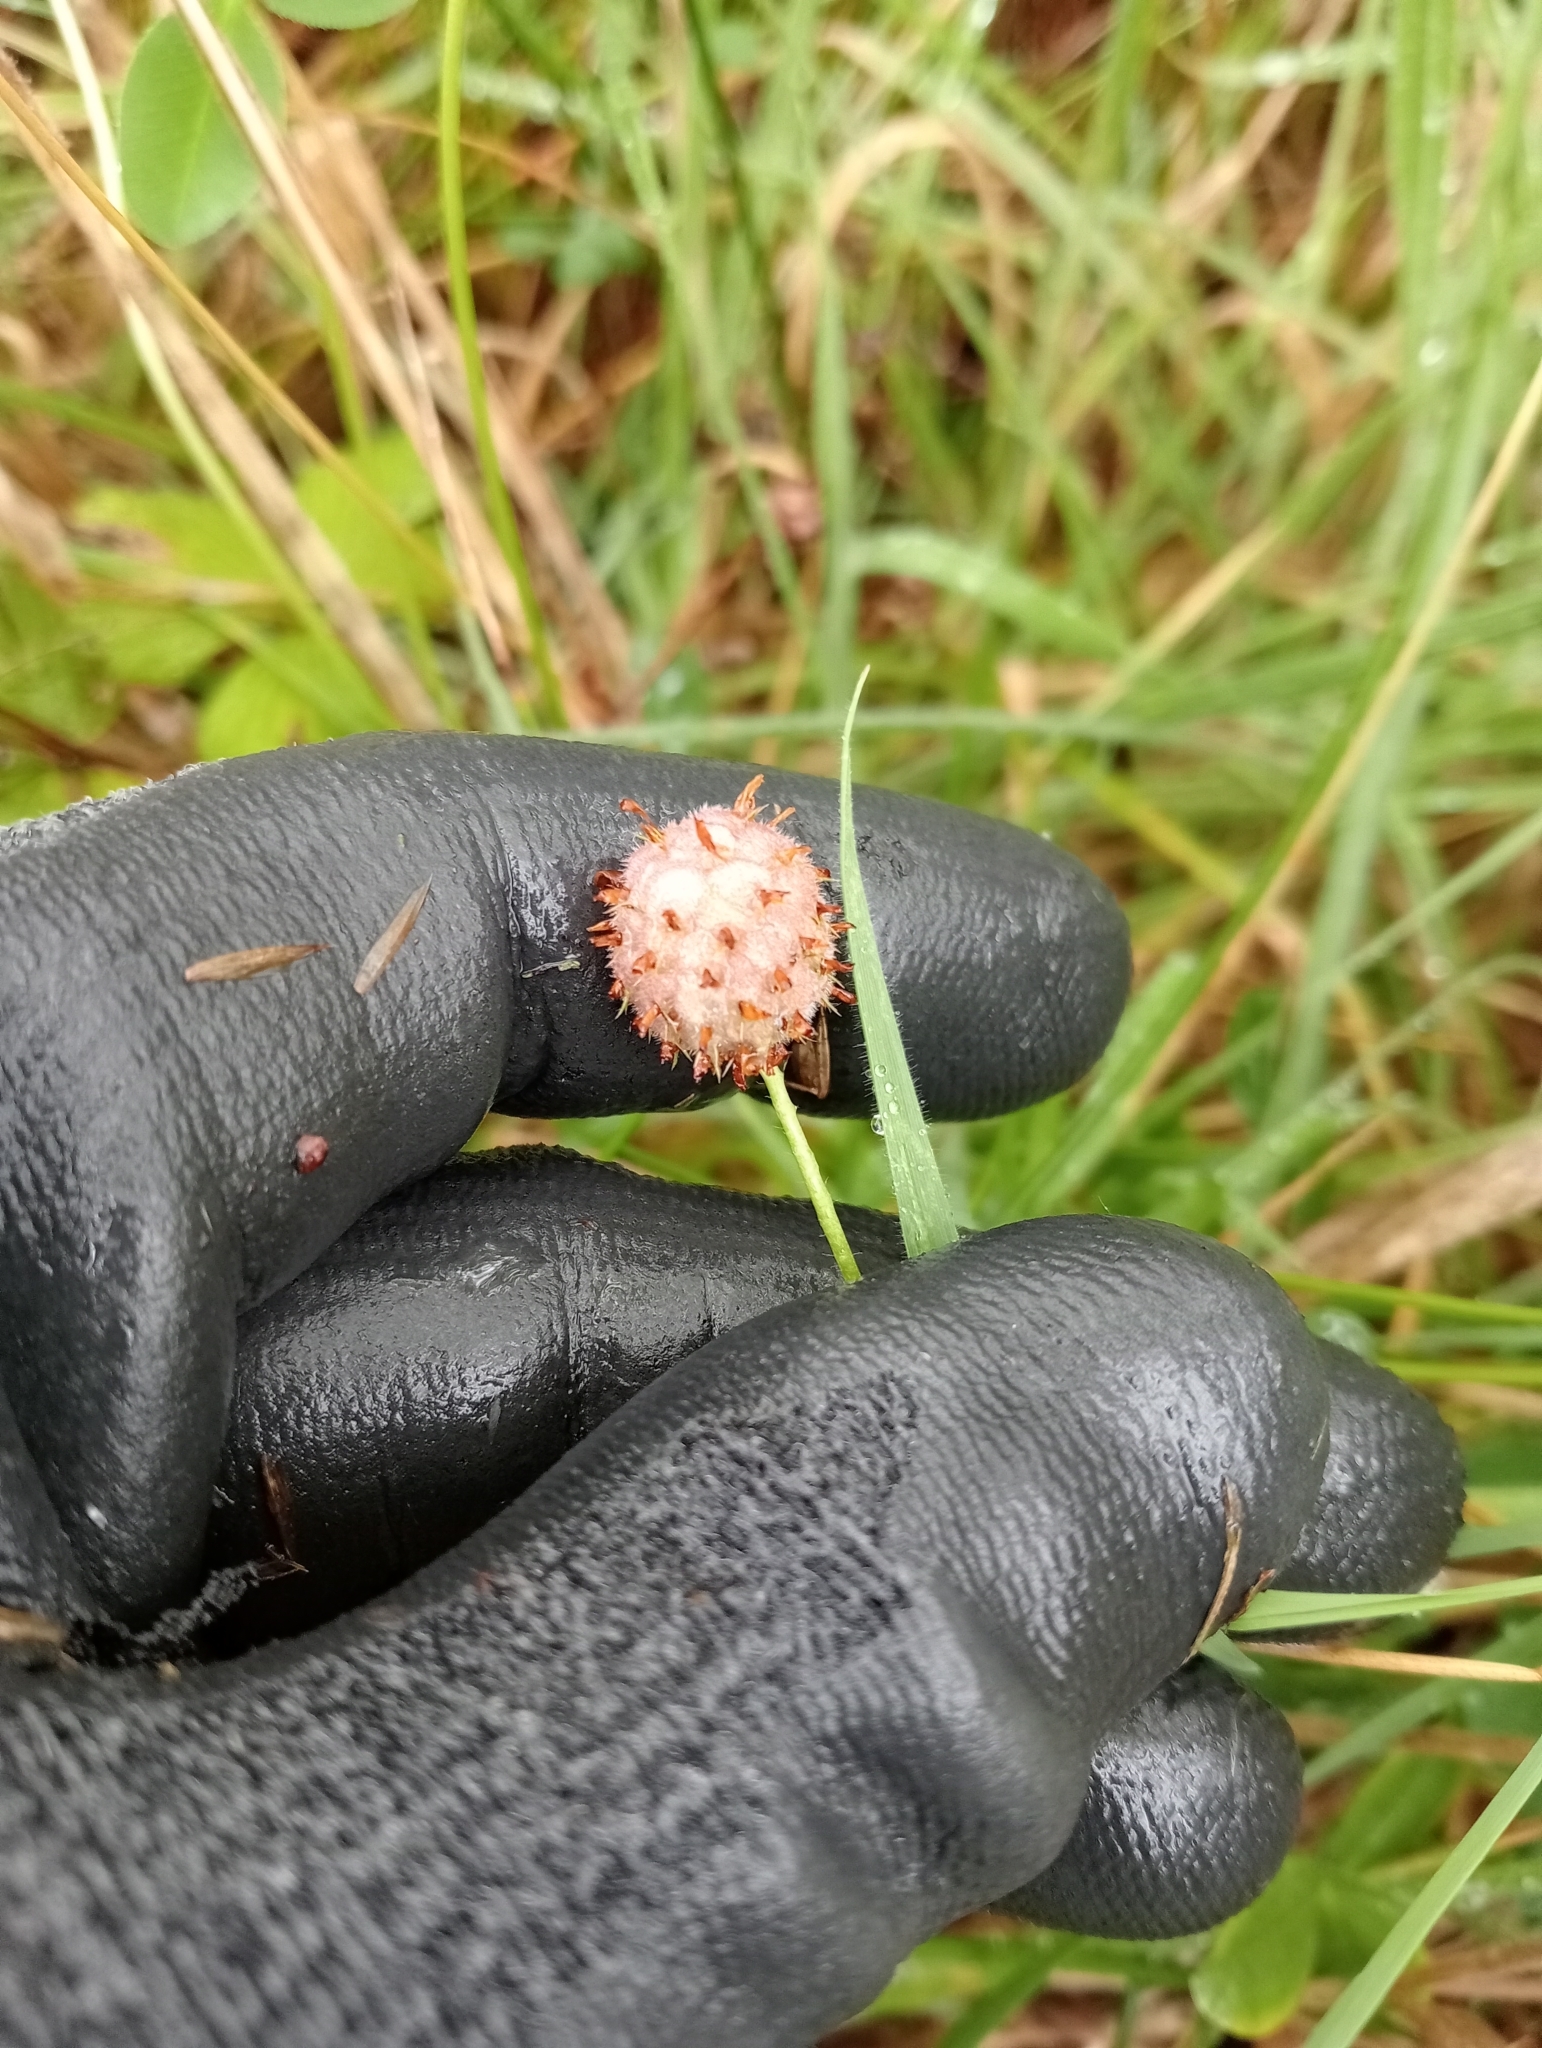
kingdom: Plantae
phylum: Tracheophyta
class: Magnoliopsida
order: Fabales
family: Fabaceae
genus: Trifolium
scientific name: Trifolium fragiferum
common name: Strawberry clover
